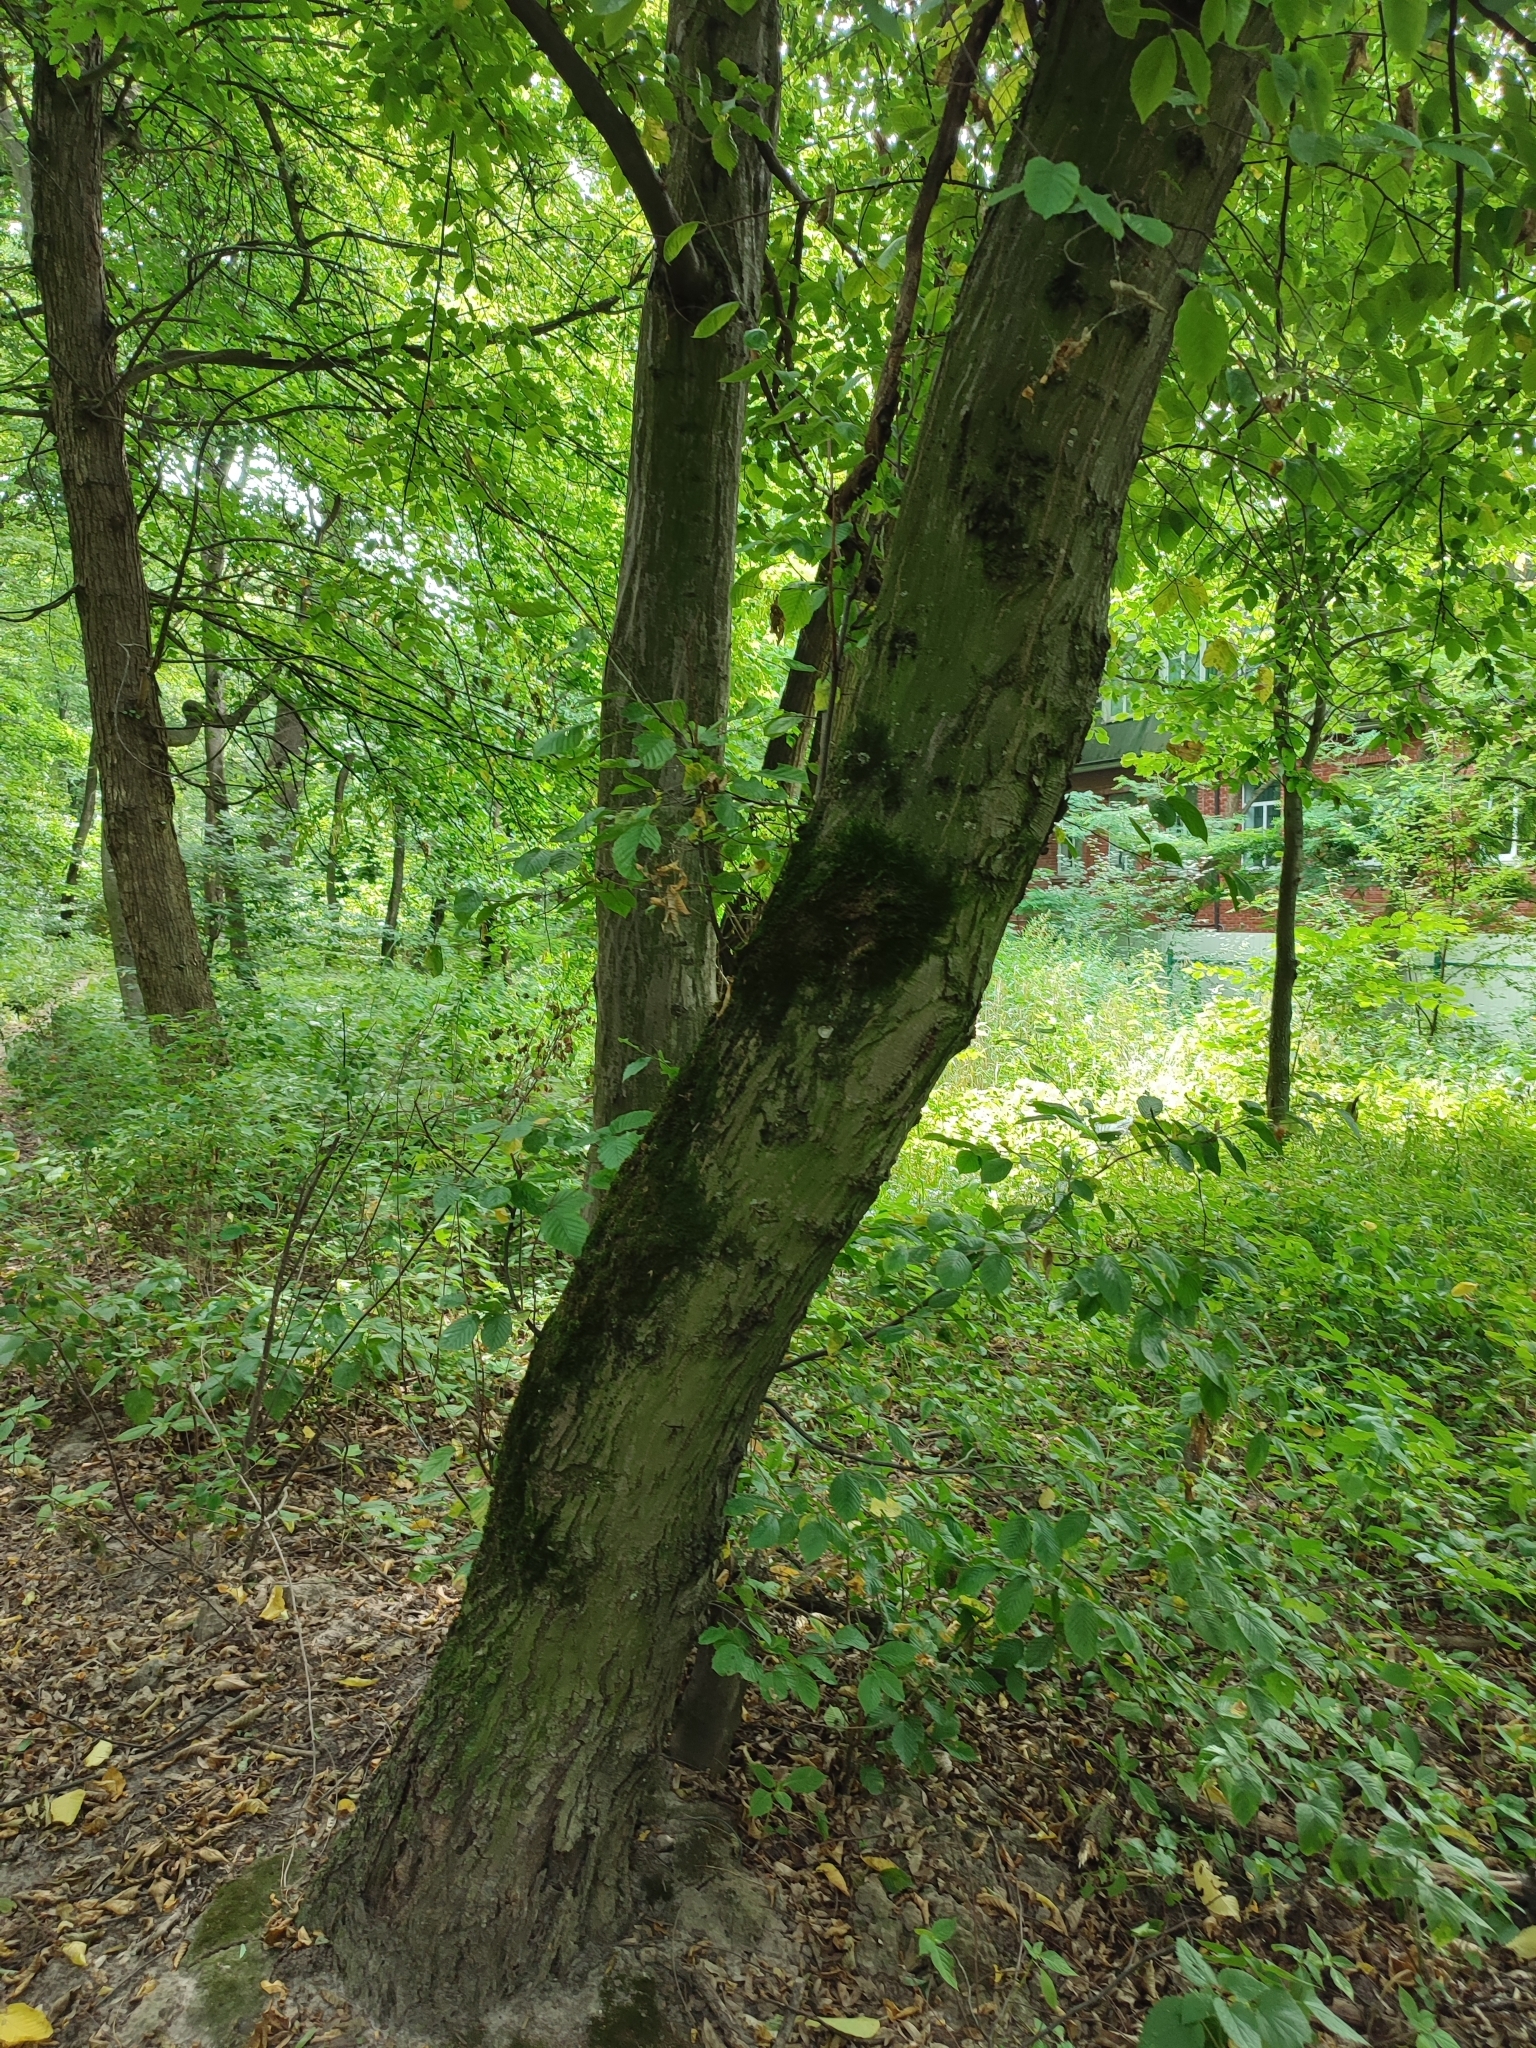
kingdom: Plantae
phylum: Tracheophyta
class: Magnoliopsida
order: Fagales
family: Betulaceae
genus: Carpinus
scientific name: Carpinus betulus
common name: Hornbeam
